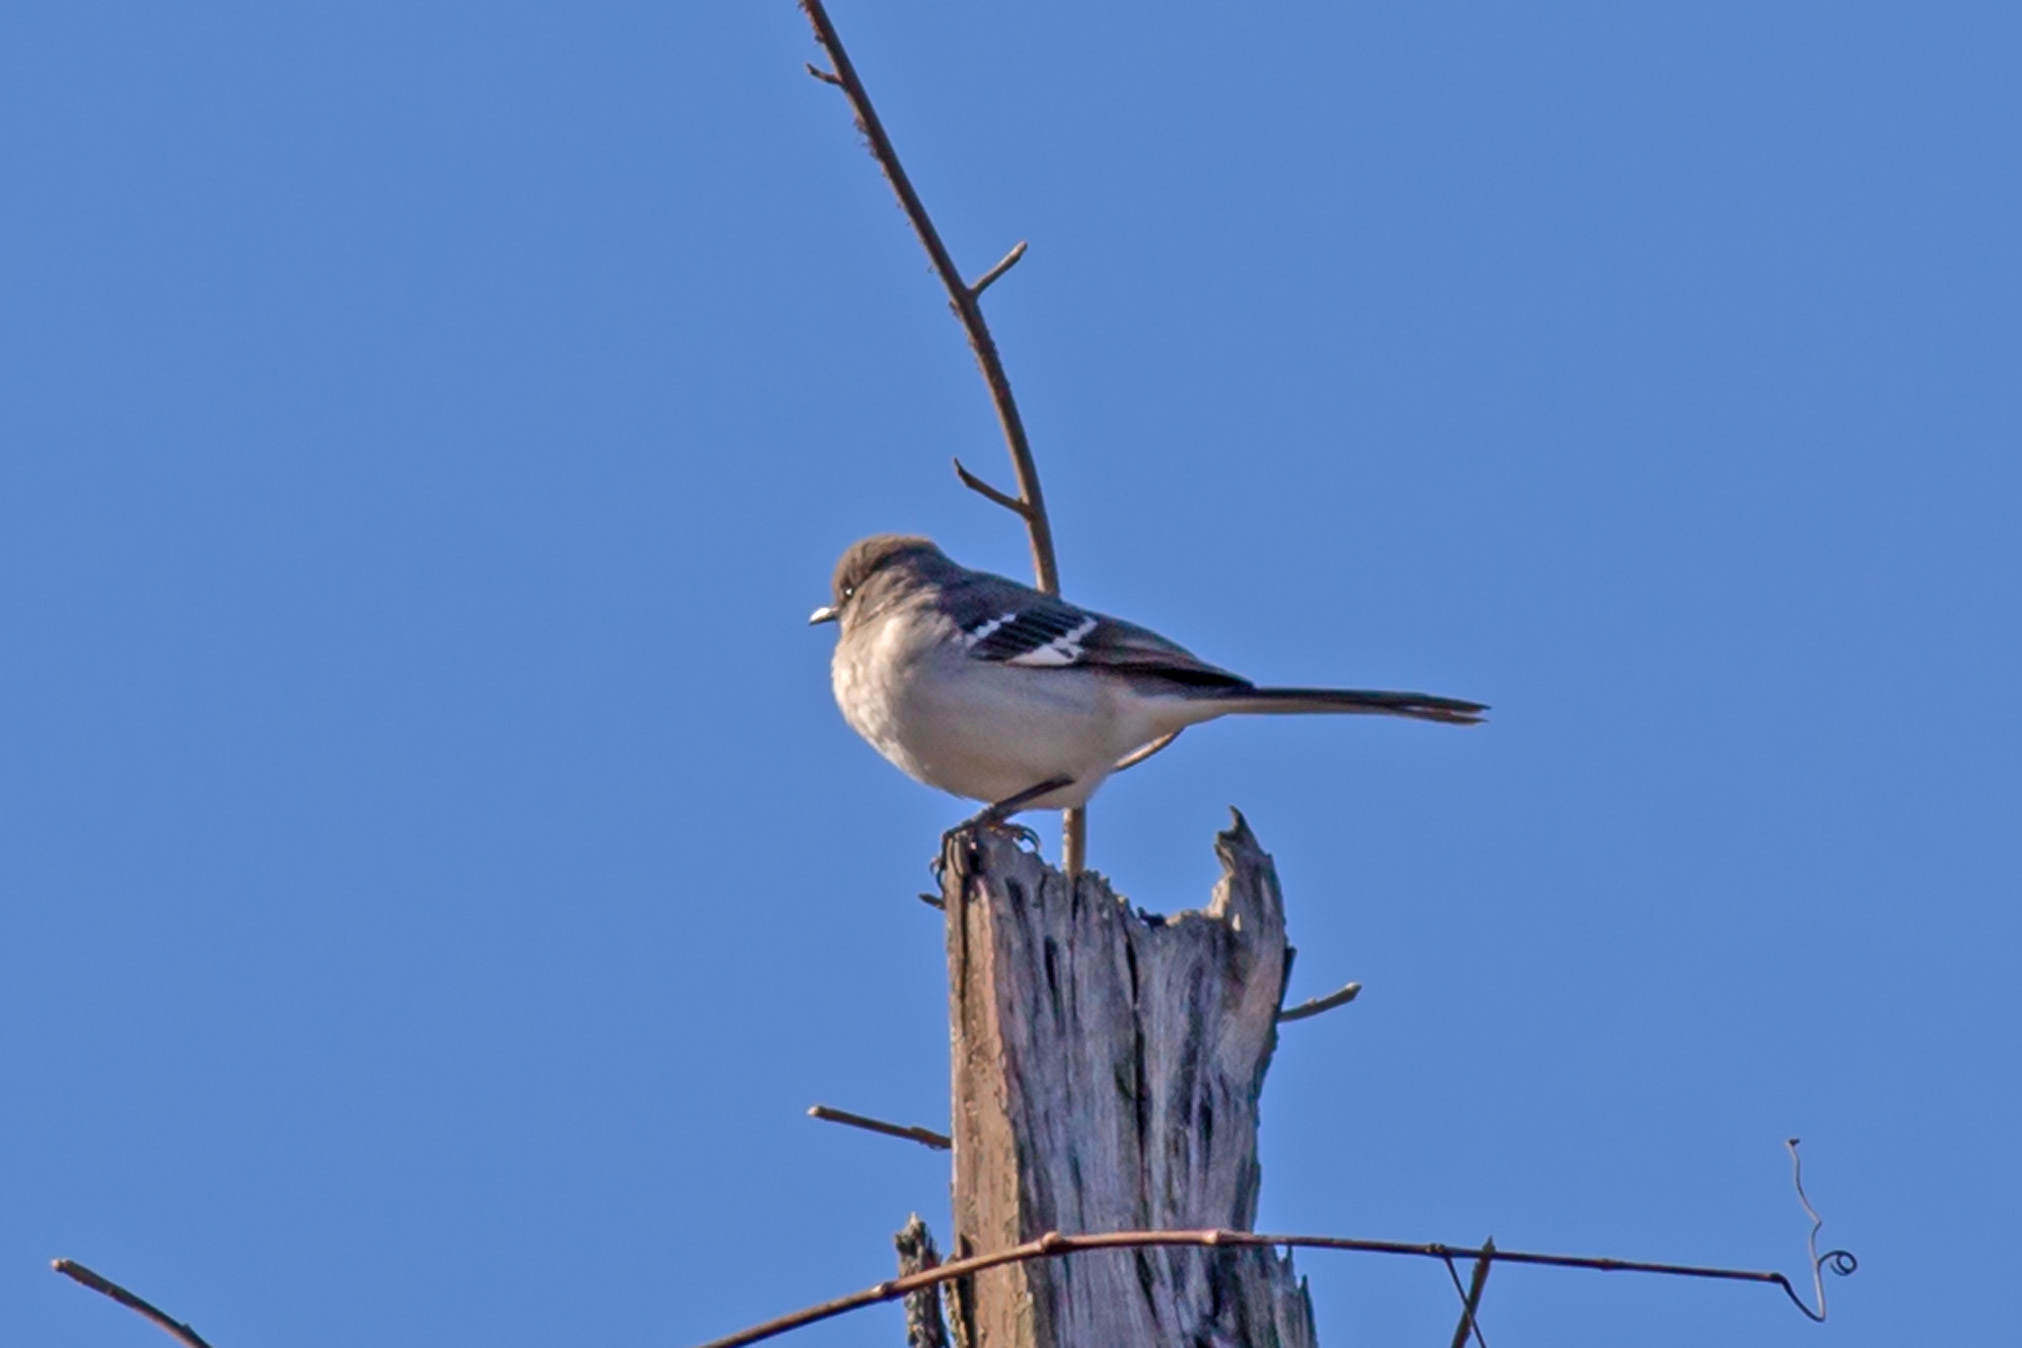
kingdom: Animalia
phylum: Chordata
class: Aves
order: Passeriformes
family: Mimidae
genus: Mimus
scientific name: Mimus polyglottos
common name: Northern mockingbird
